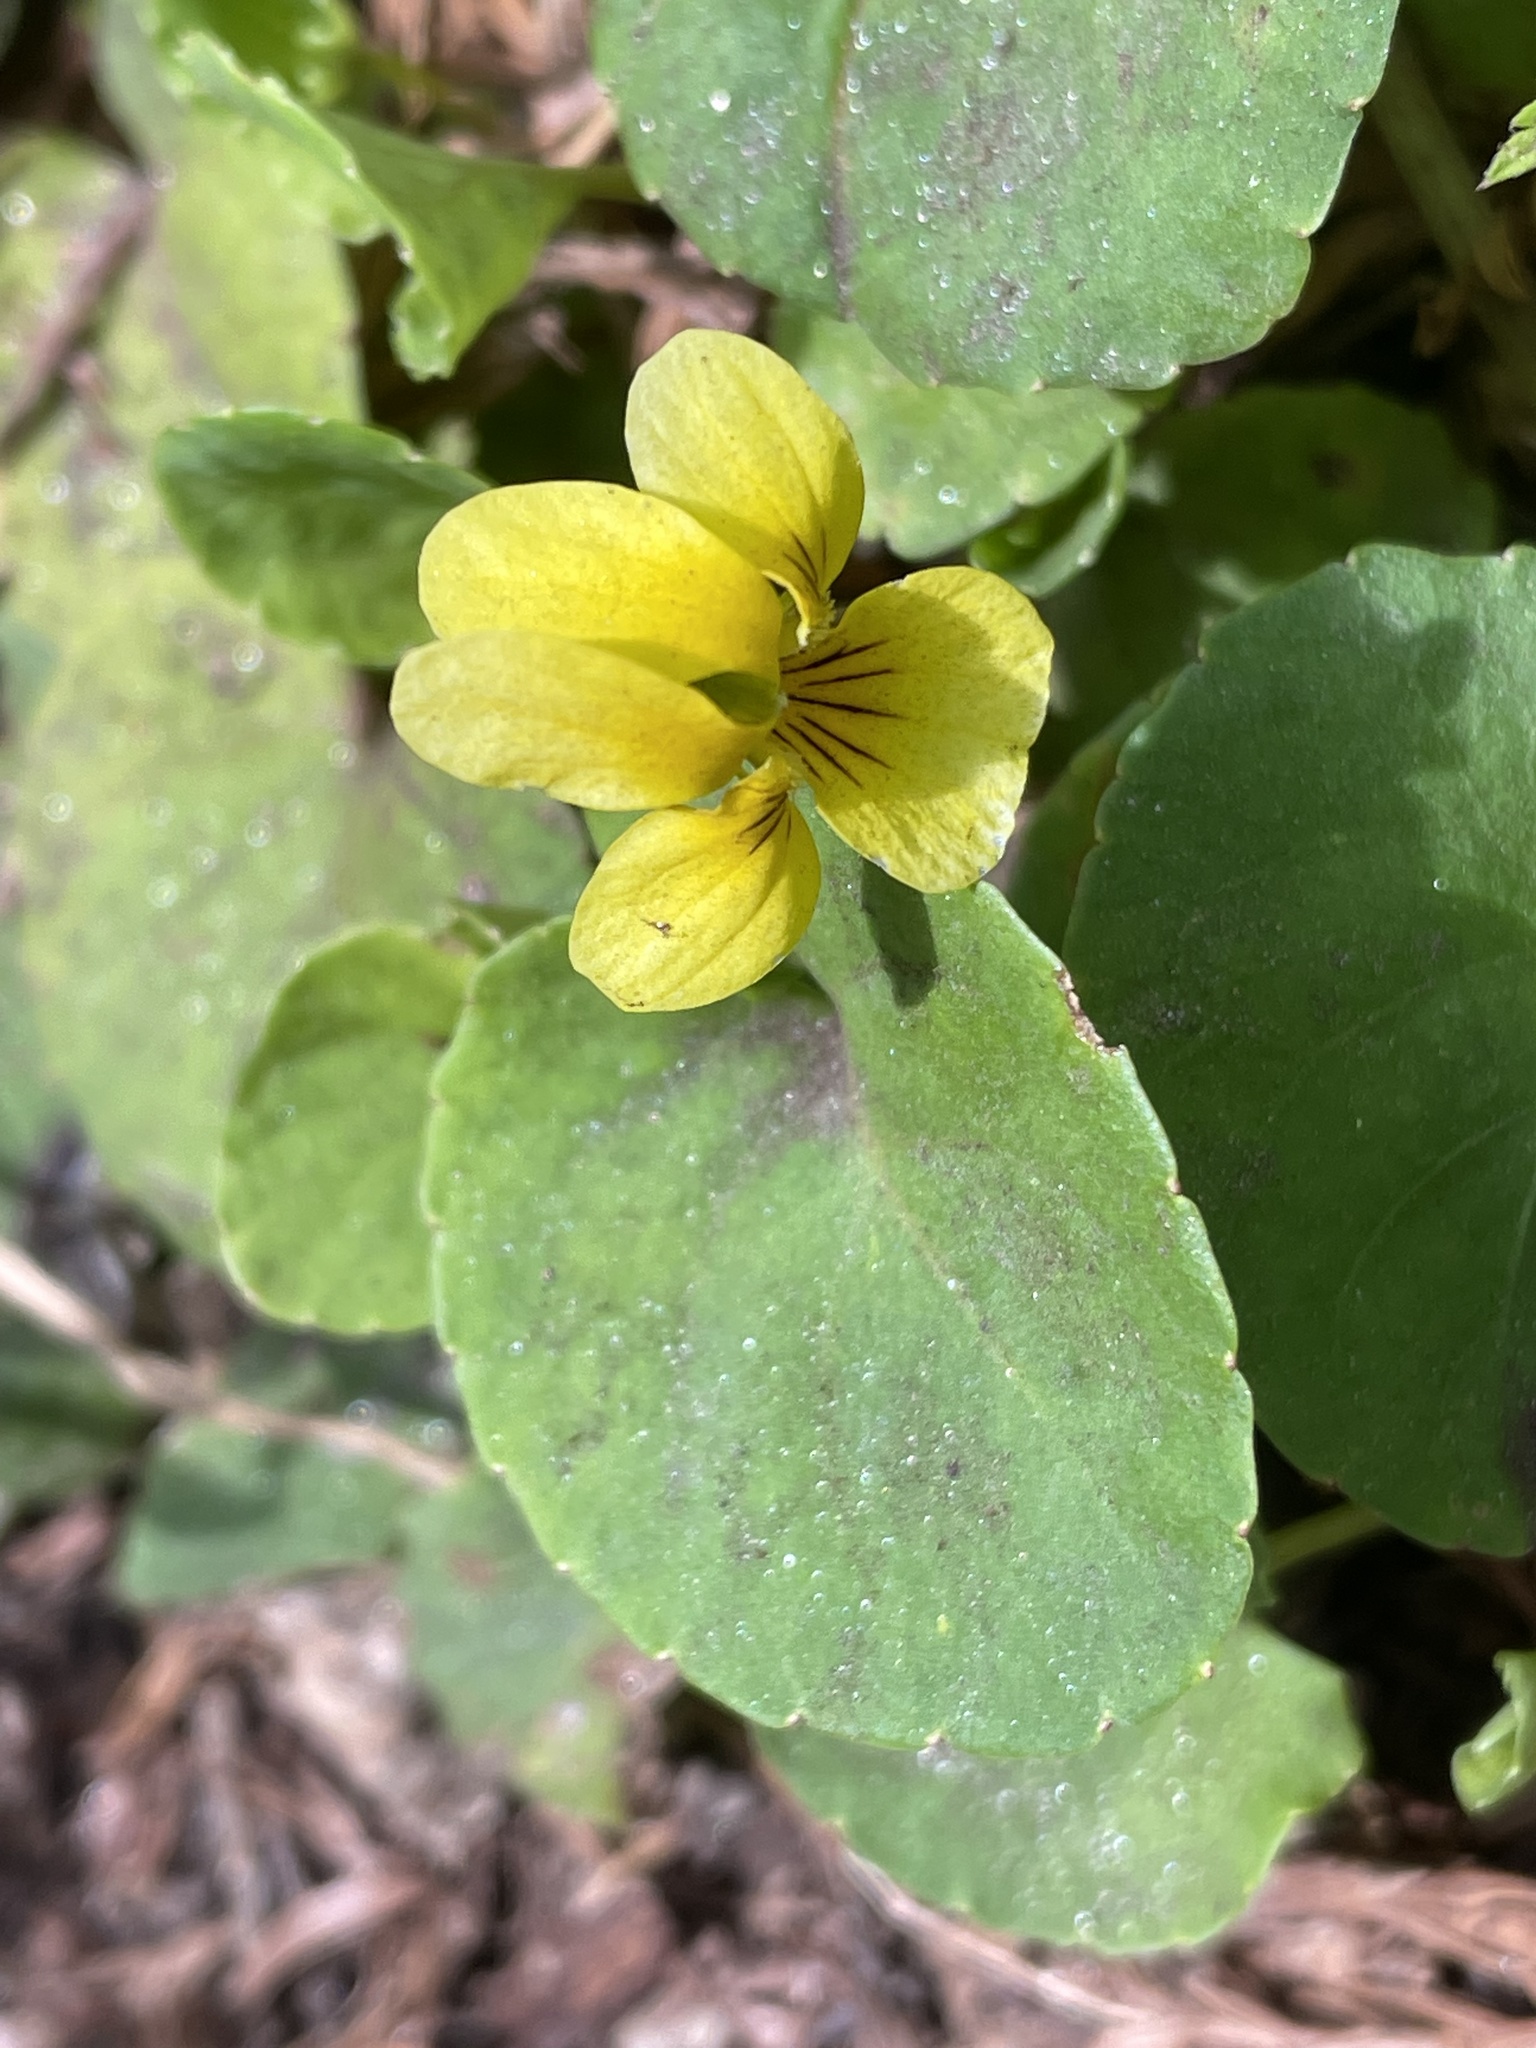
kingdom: Plantae
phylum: Tracheophyta
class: Magnoliopsida
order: Malpighiales
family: Violaceae
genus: Viola
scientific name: Viola sempervirens
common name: Evergreen violet
